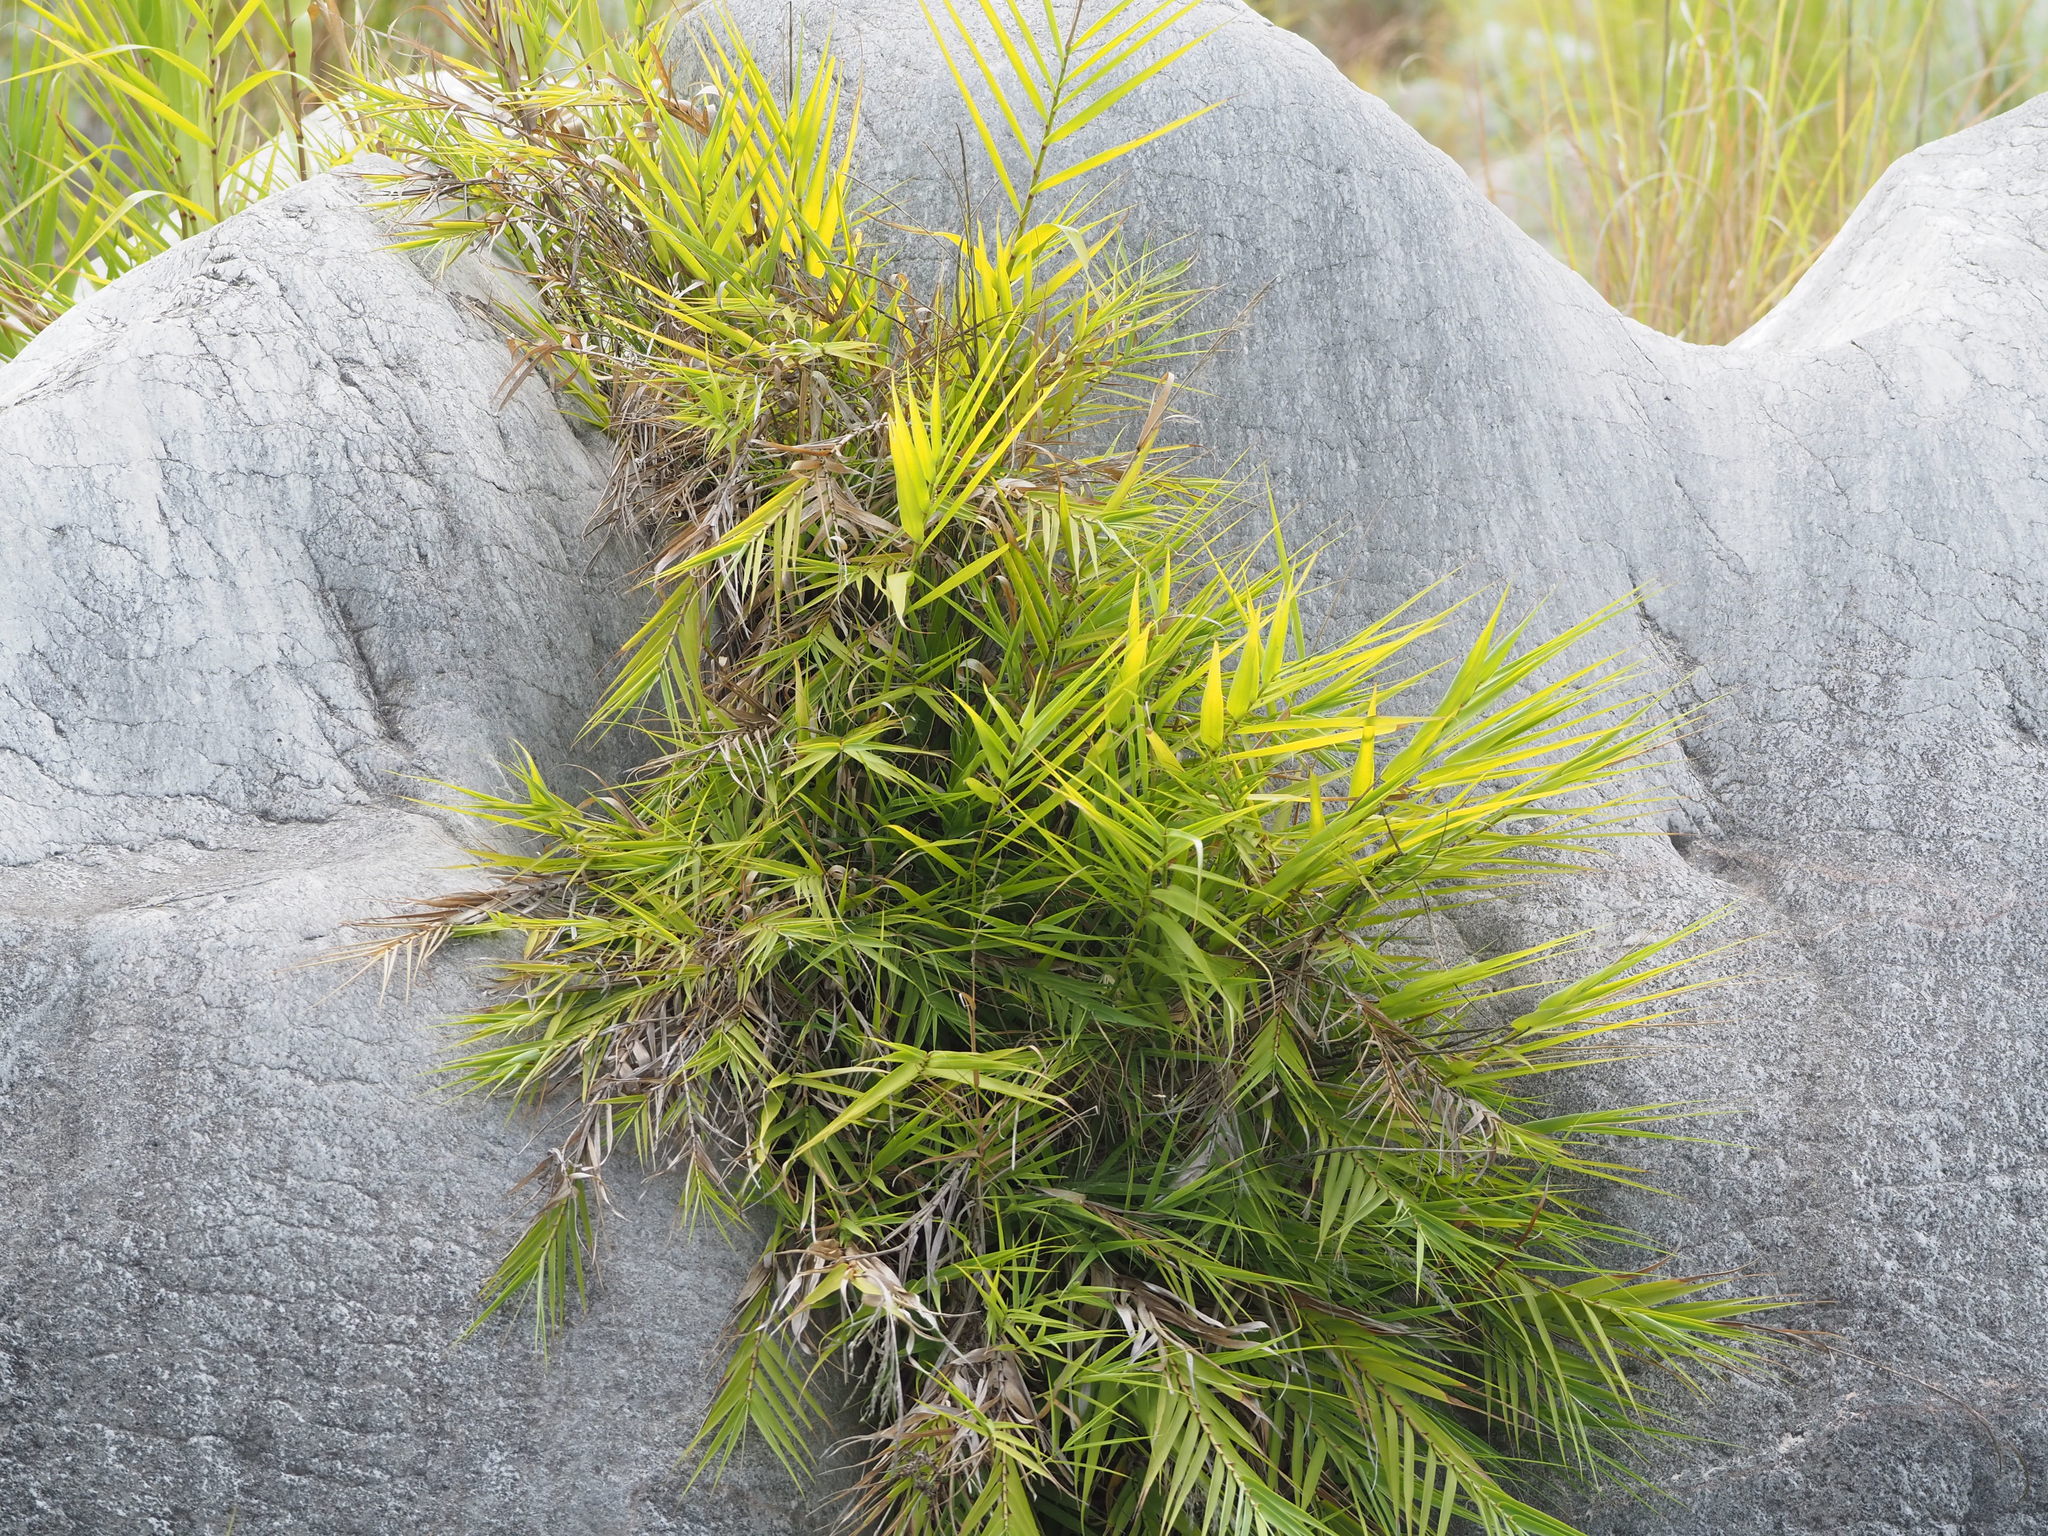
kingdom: Plantae
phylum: Tracheophyta
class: Liliopsida
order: Poales
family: Poaceae
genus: Arundo
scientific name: Arundo formosana
